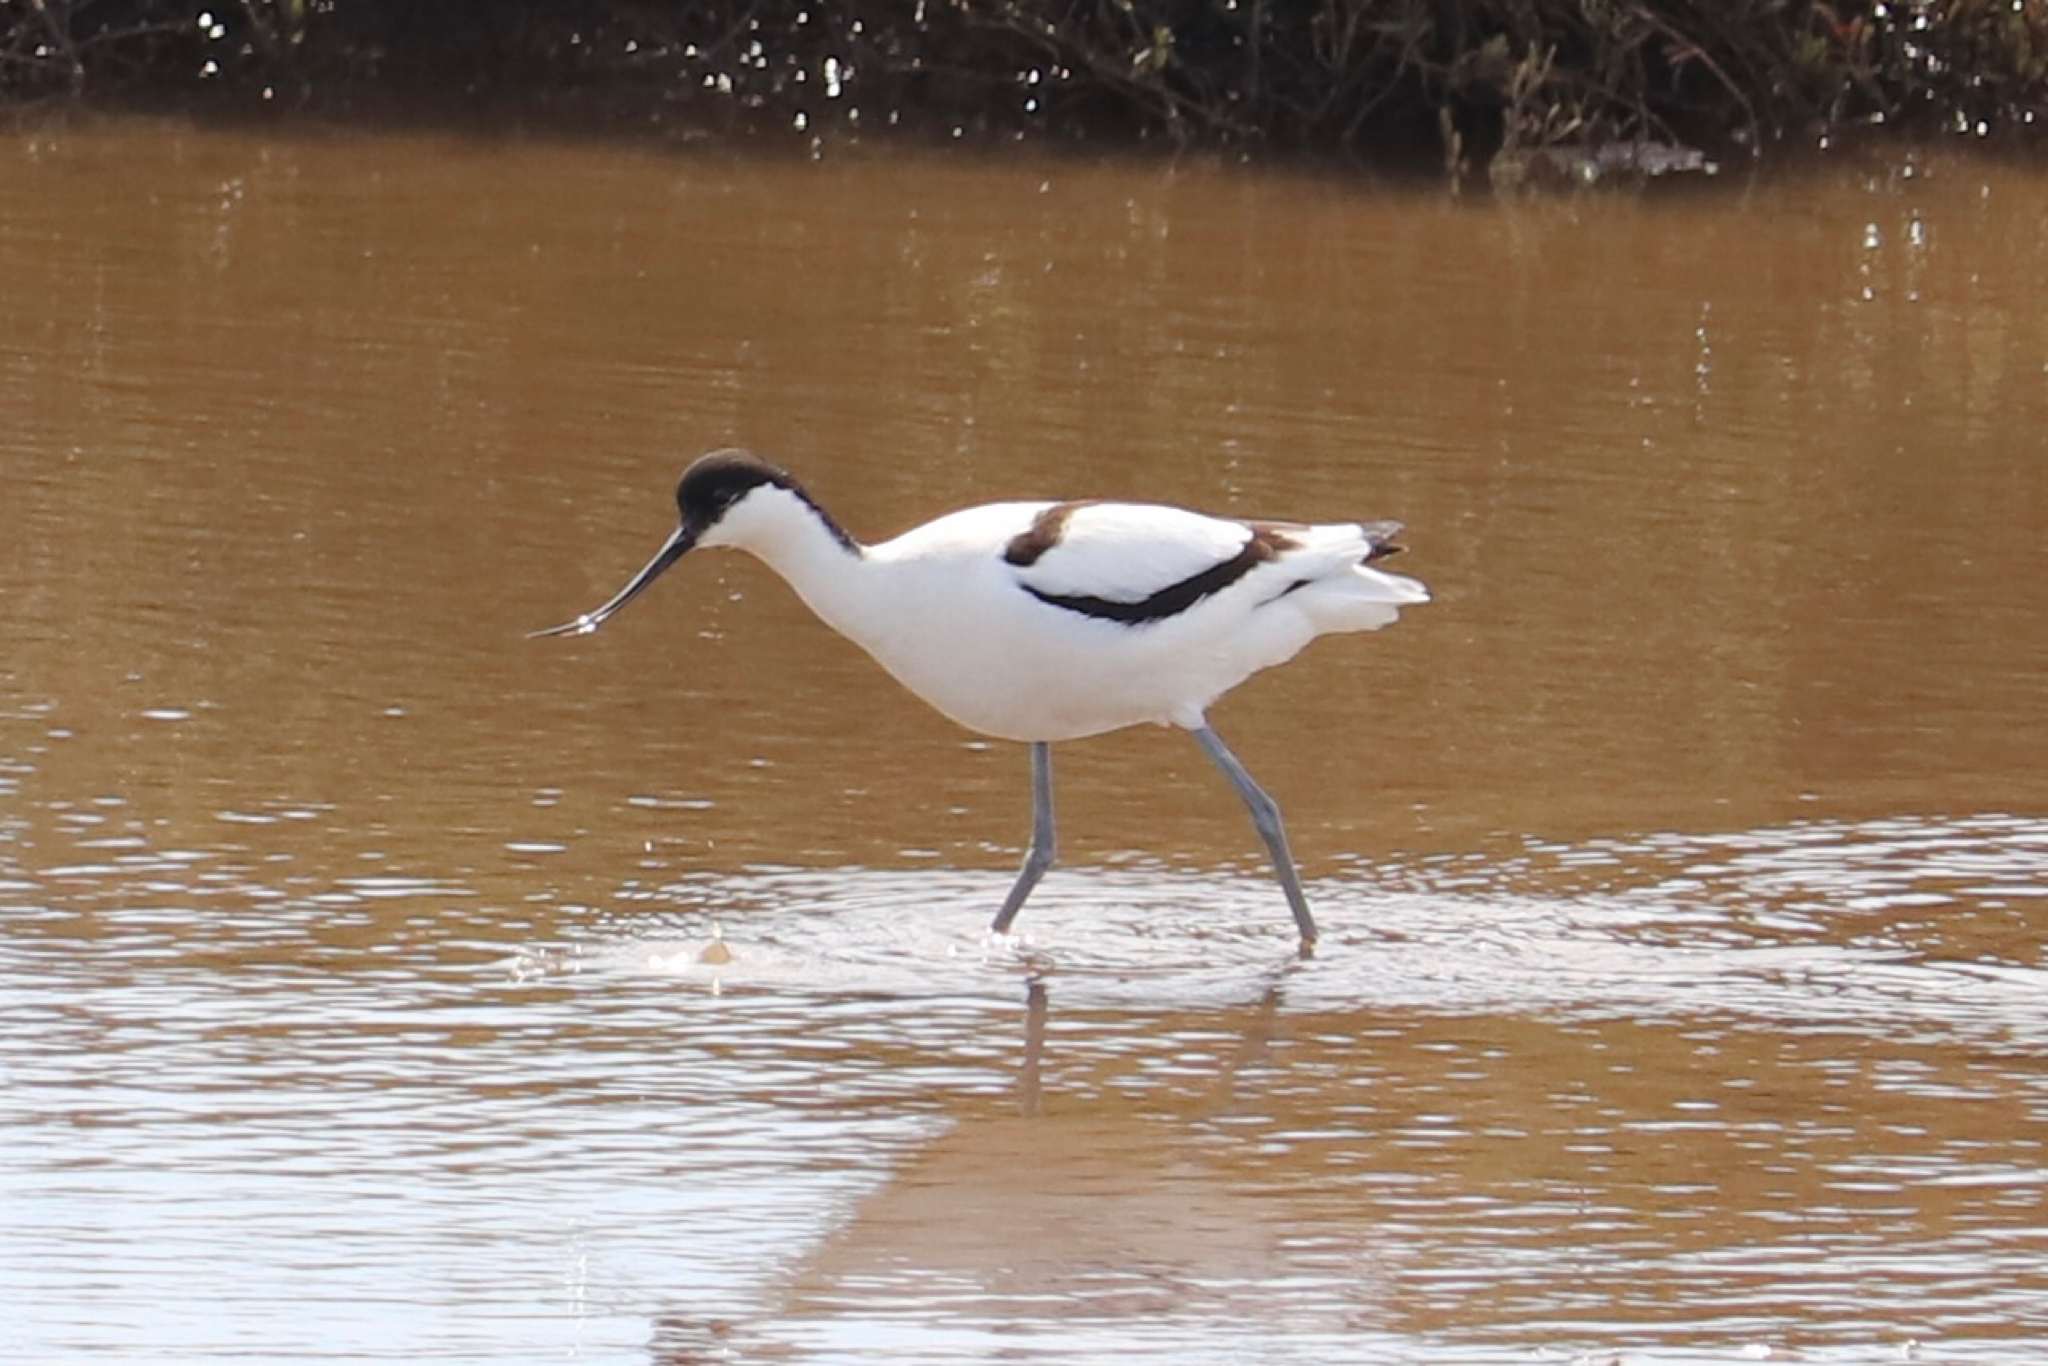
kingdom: Animalia
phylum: Chordata
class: Aves
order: Charadriiformes
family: Recurvirostridae
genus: Recurvirostra
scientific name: Recurvirostra avosetta
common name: Pied avocet
